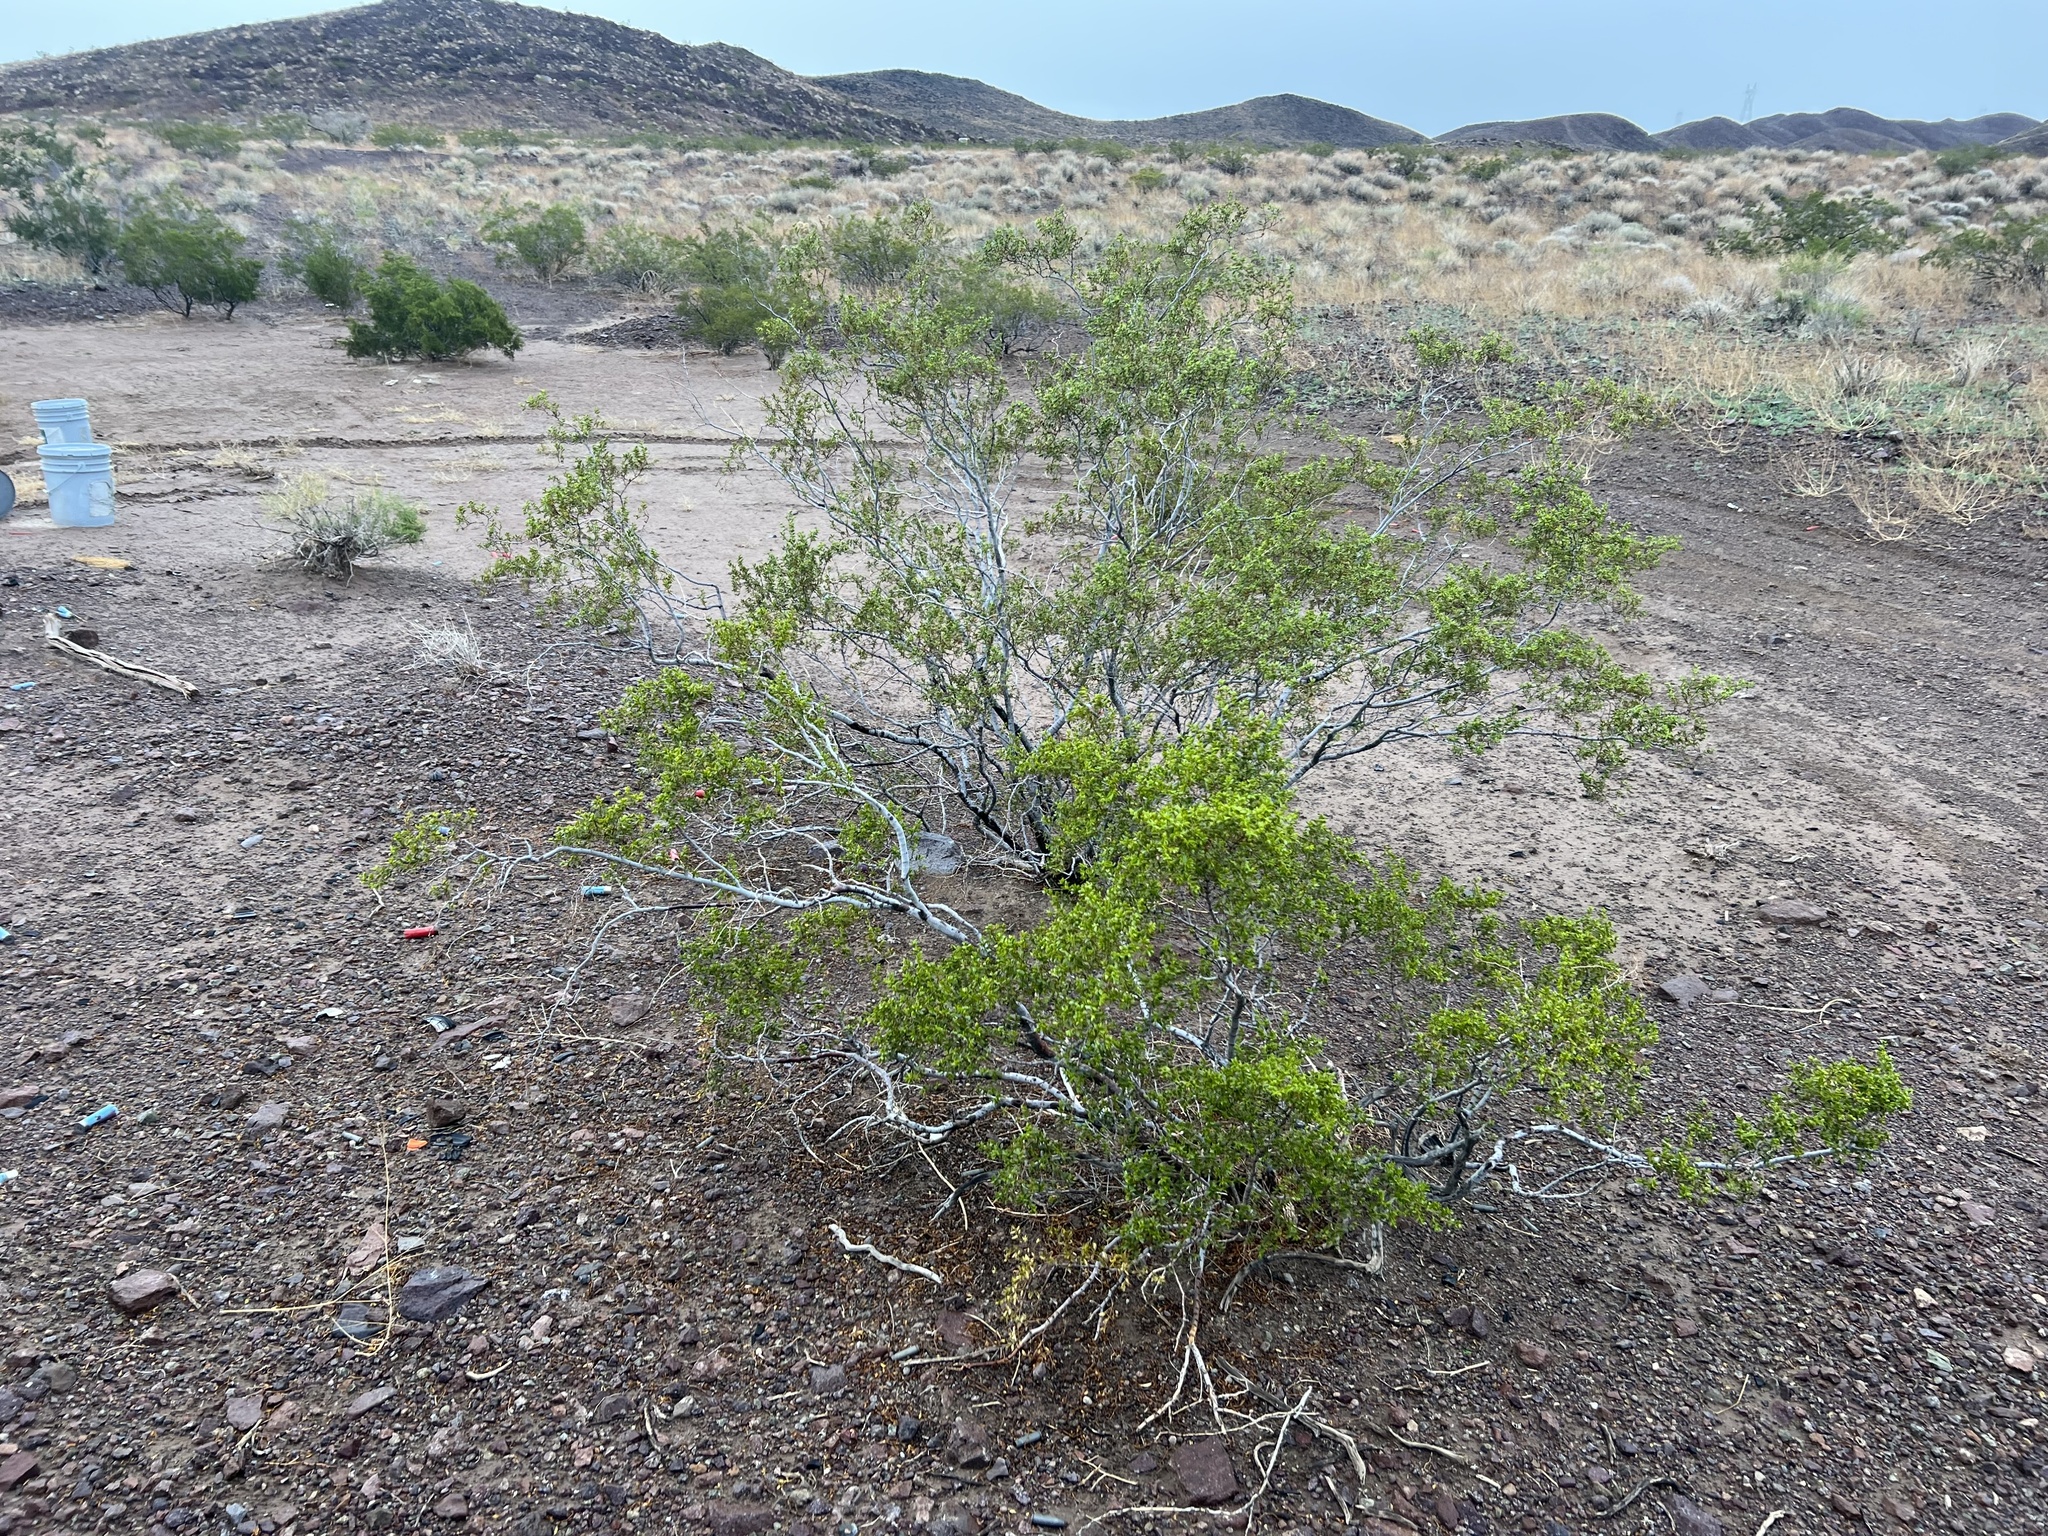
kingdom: Plantae
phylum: Tracheophyta
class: Magnoliopsida
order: Zygophyllales
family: Zygophyllaceae
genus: Larrea
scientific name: Larrea tridentata
